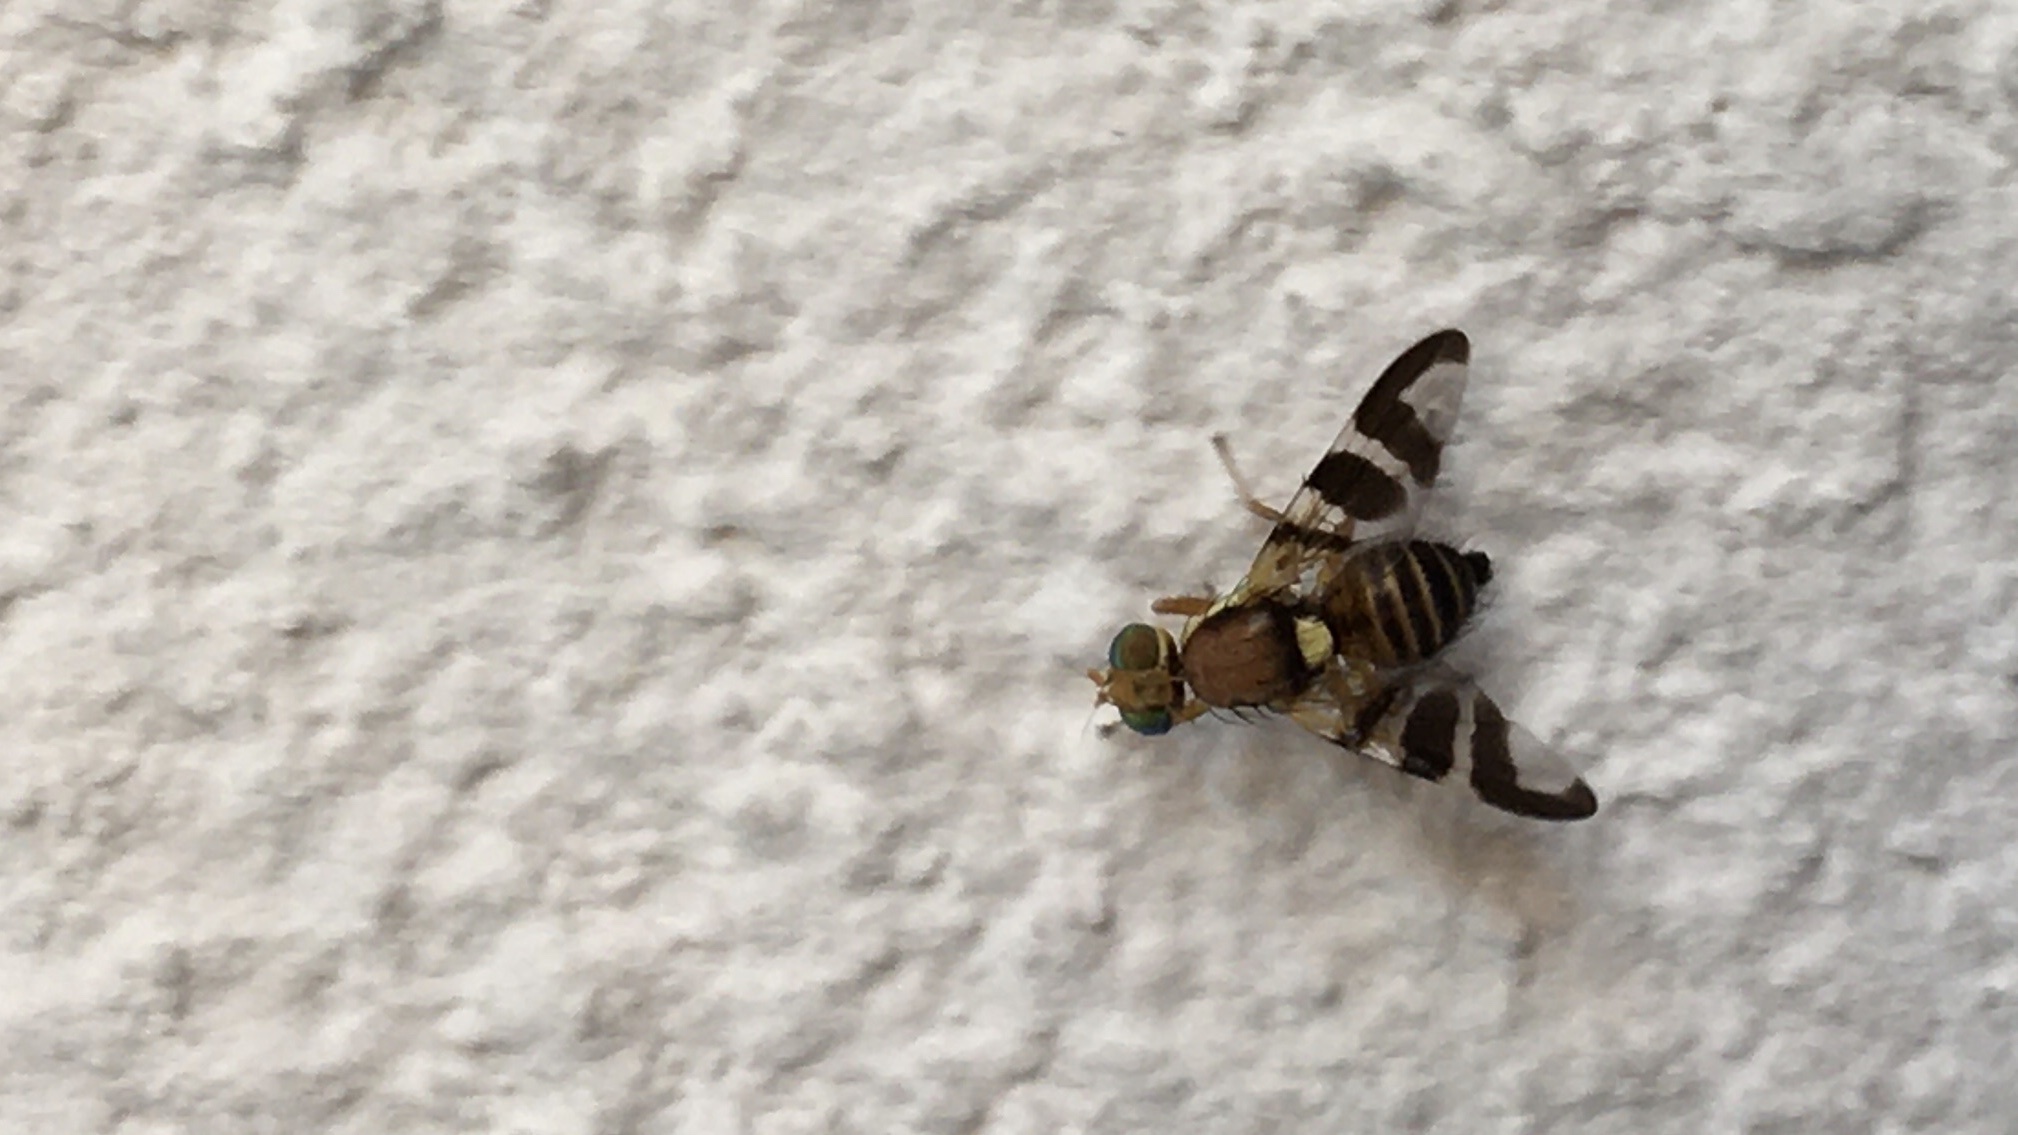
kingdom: Animalia
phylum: Arthropoda
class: Insecta
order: Diptera
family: Tephritidae
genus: Rhagoletis
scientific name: Rhagoletis completa
